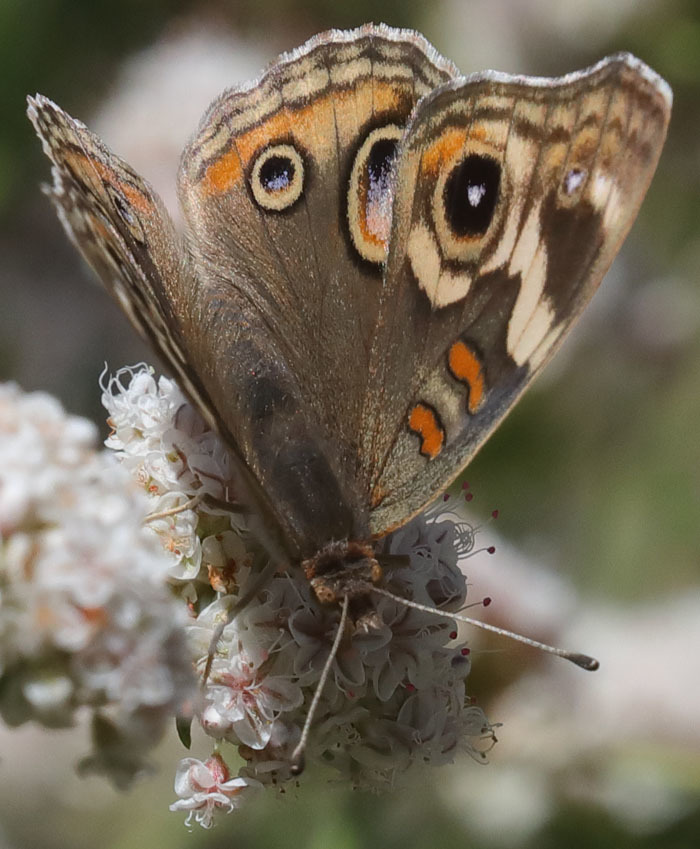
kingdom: Animalia
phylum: Arthropoda
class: Insecta
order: Lepidoptera
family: Nymphalidae
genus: Junonia
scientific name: Junonia grisea
